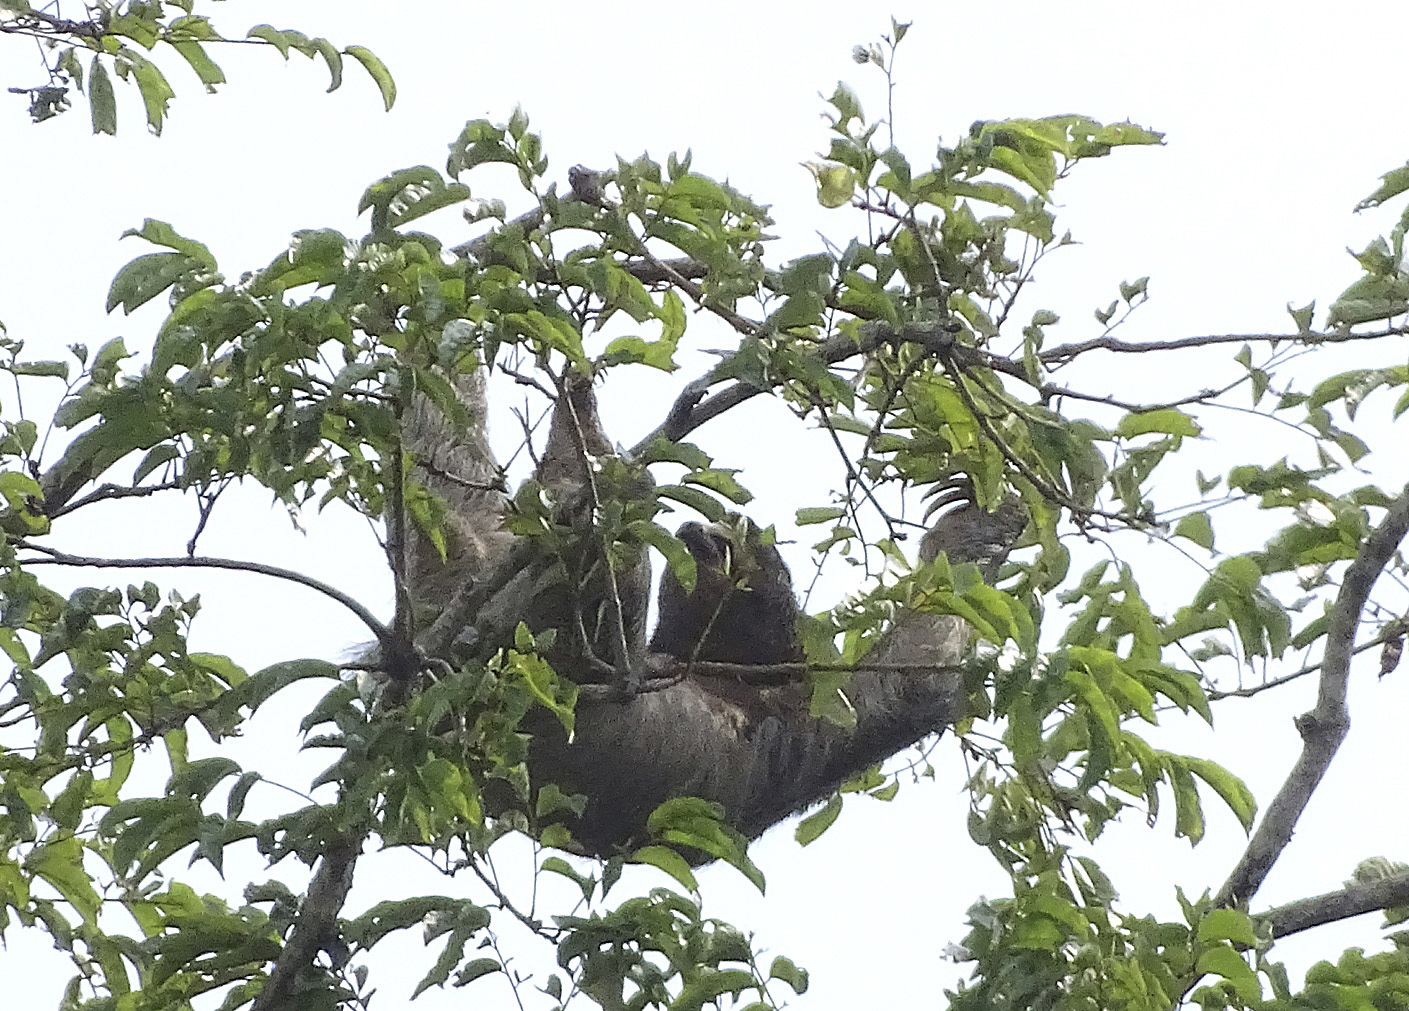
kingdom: Animalia
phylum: Chordata
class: Mammalia
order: Pilosa
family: Bradypodidae
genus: Bradypus
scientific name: Bradypus variegatus
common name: Brown-throated three-toed sloth
